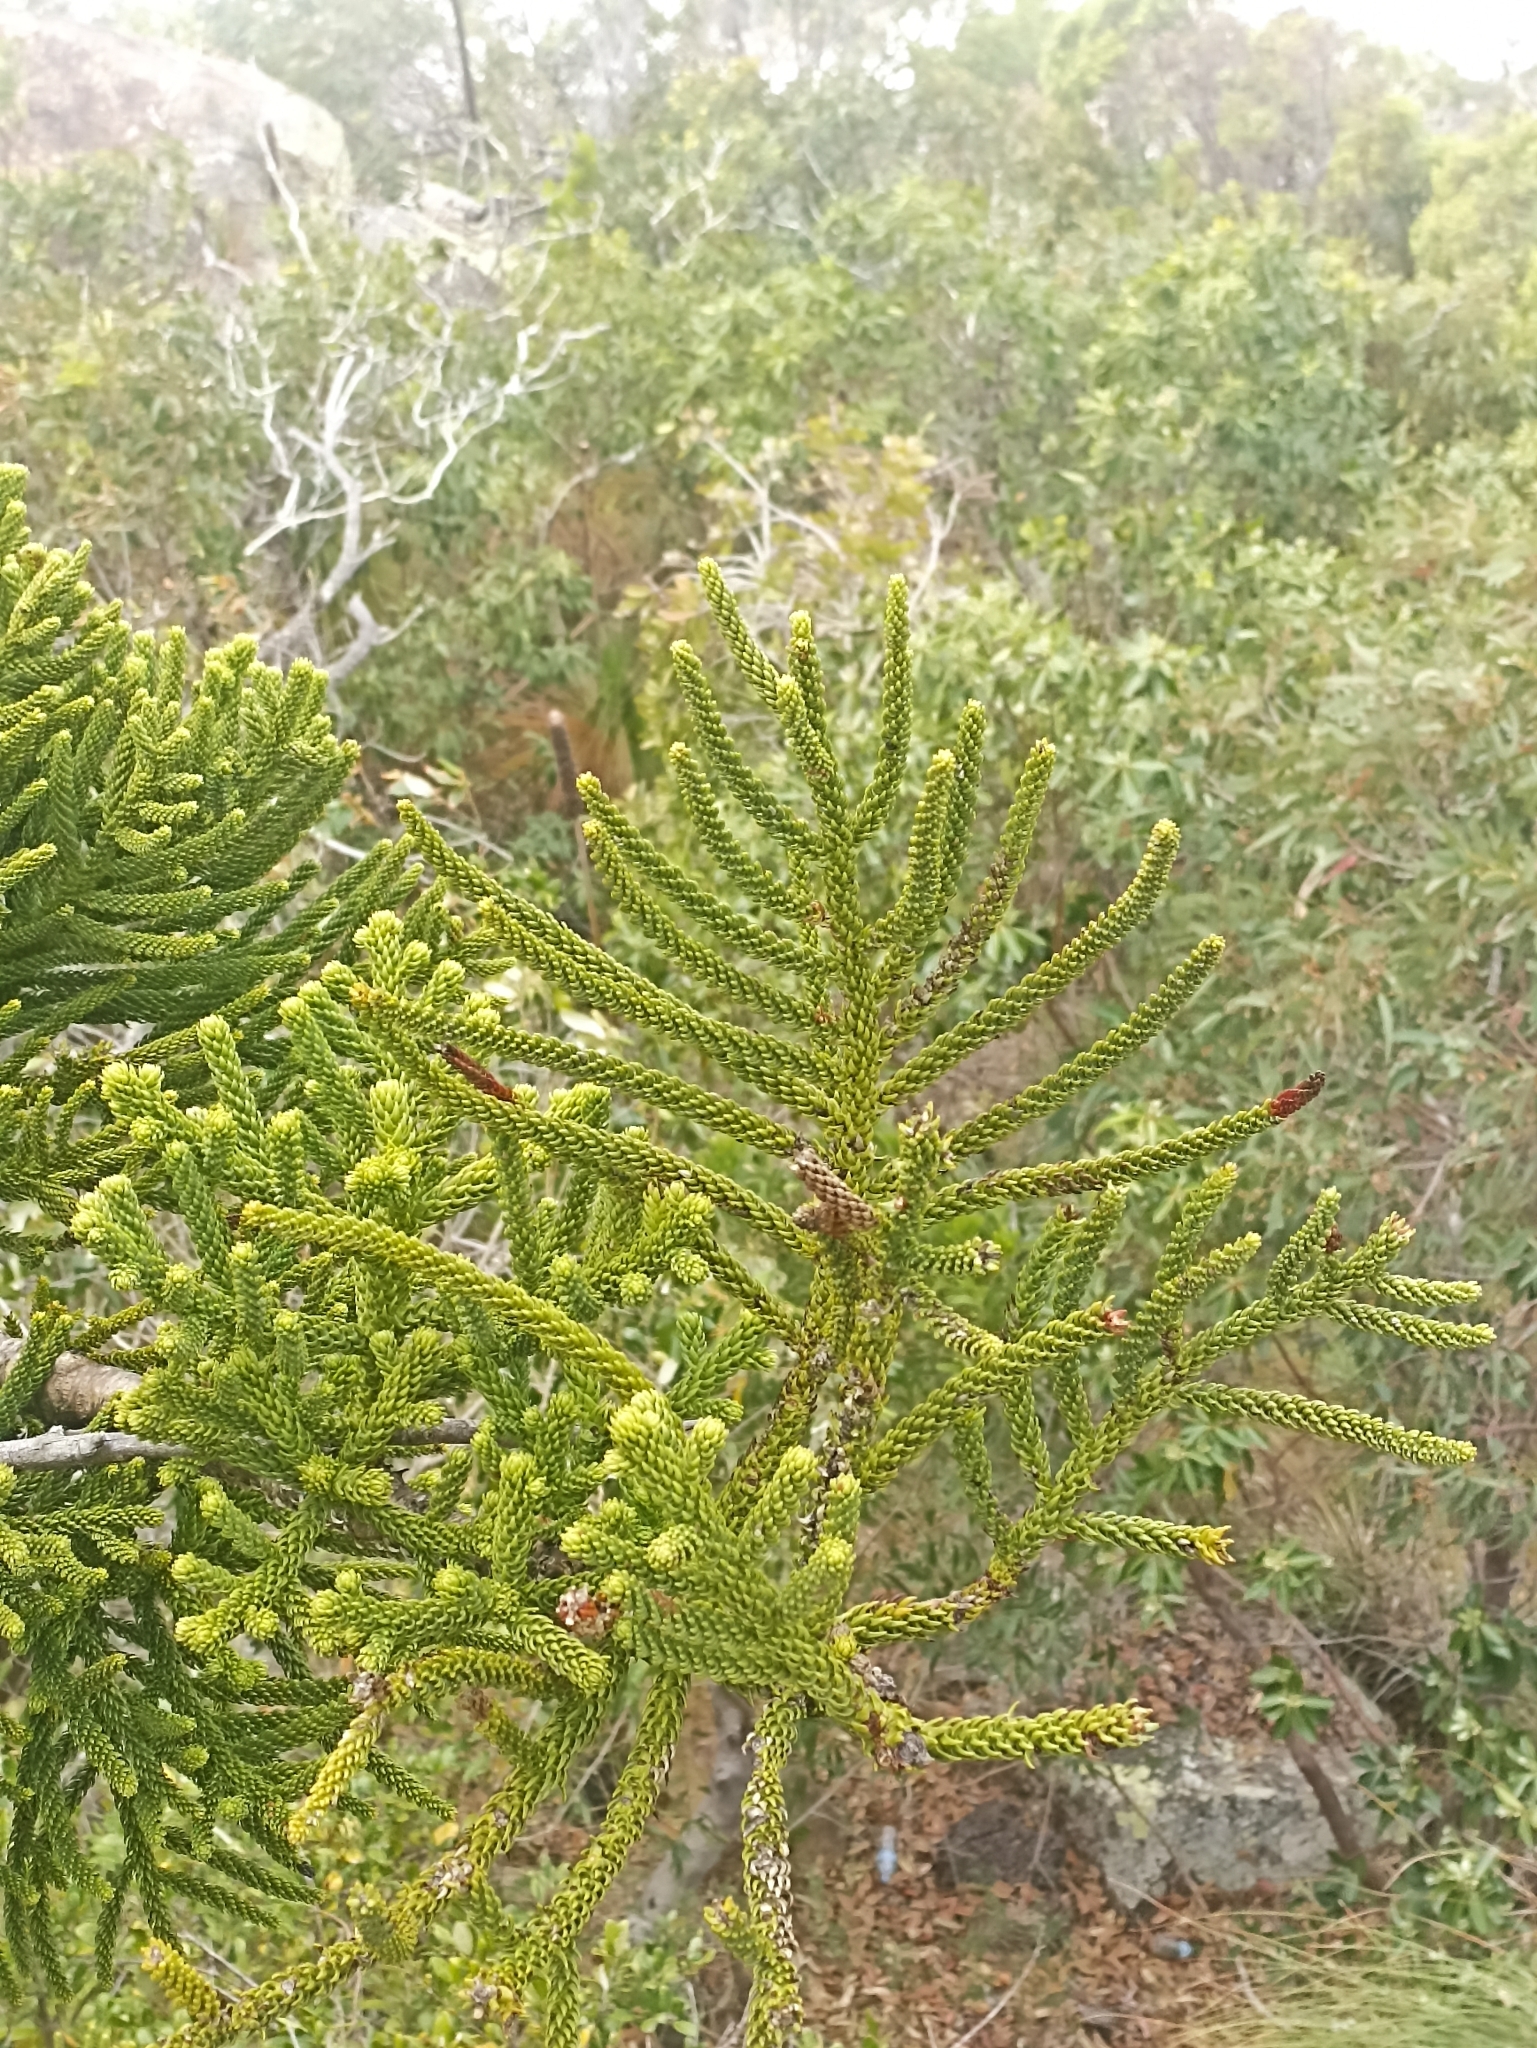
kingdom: Plantae
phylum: Tracheophyta
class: Pinopsida
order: Pinales
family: Araucariaceae
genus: Araucaria
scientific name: Araucaria cunninghamii
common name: Colonial pine
